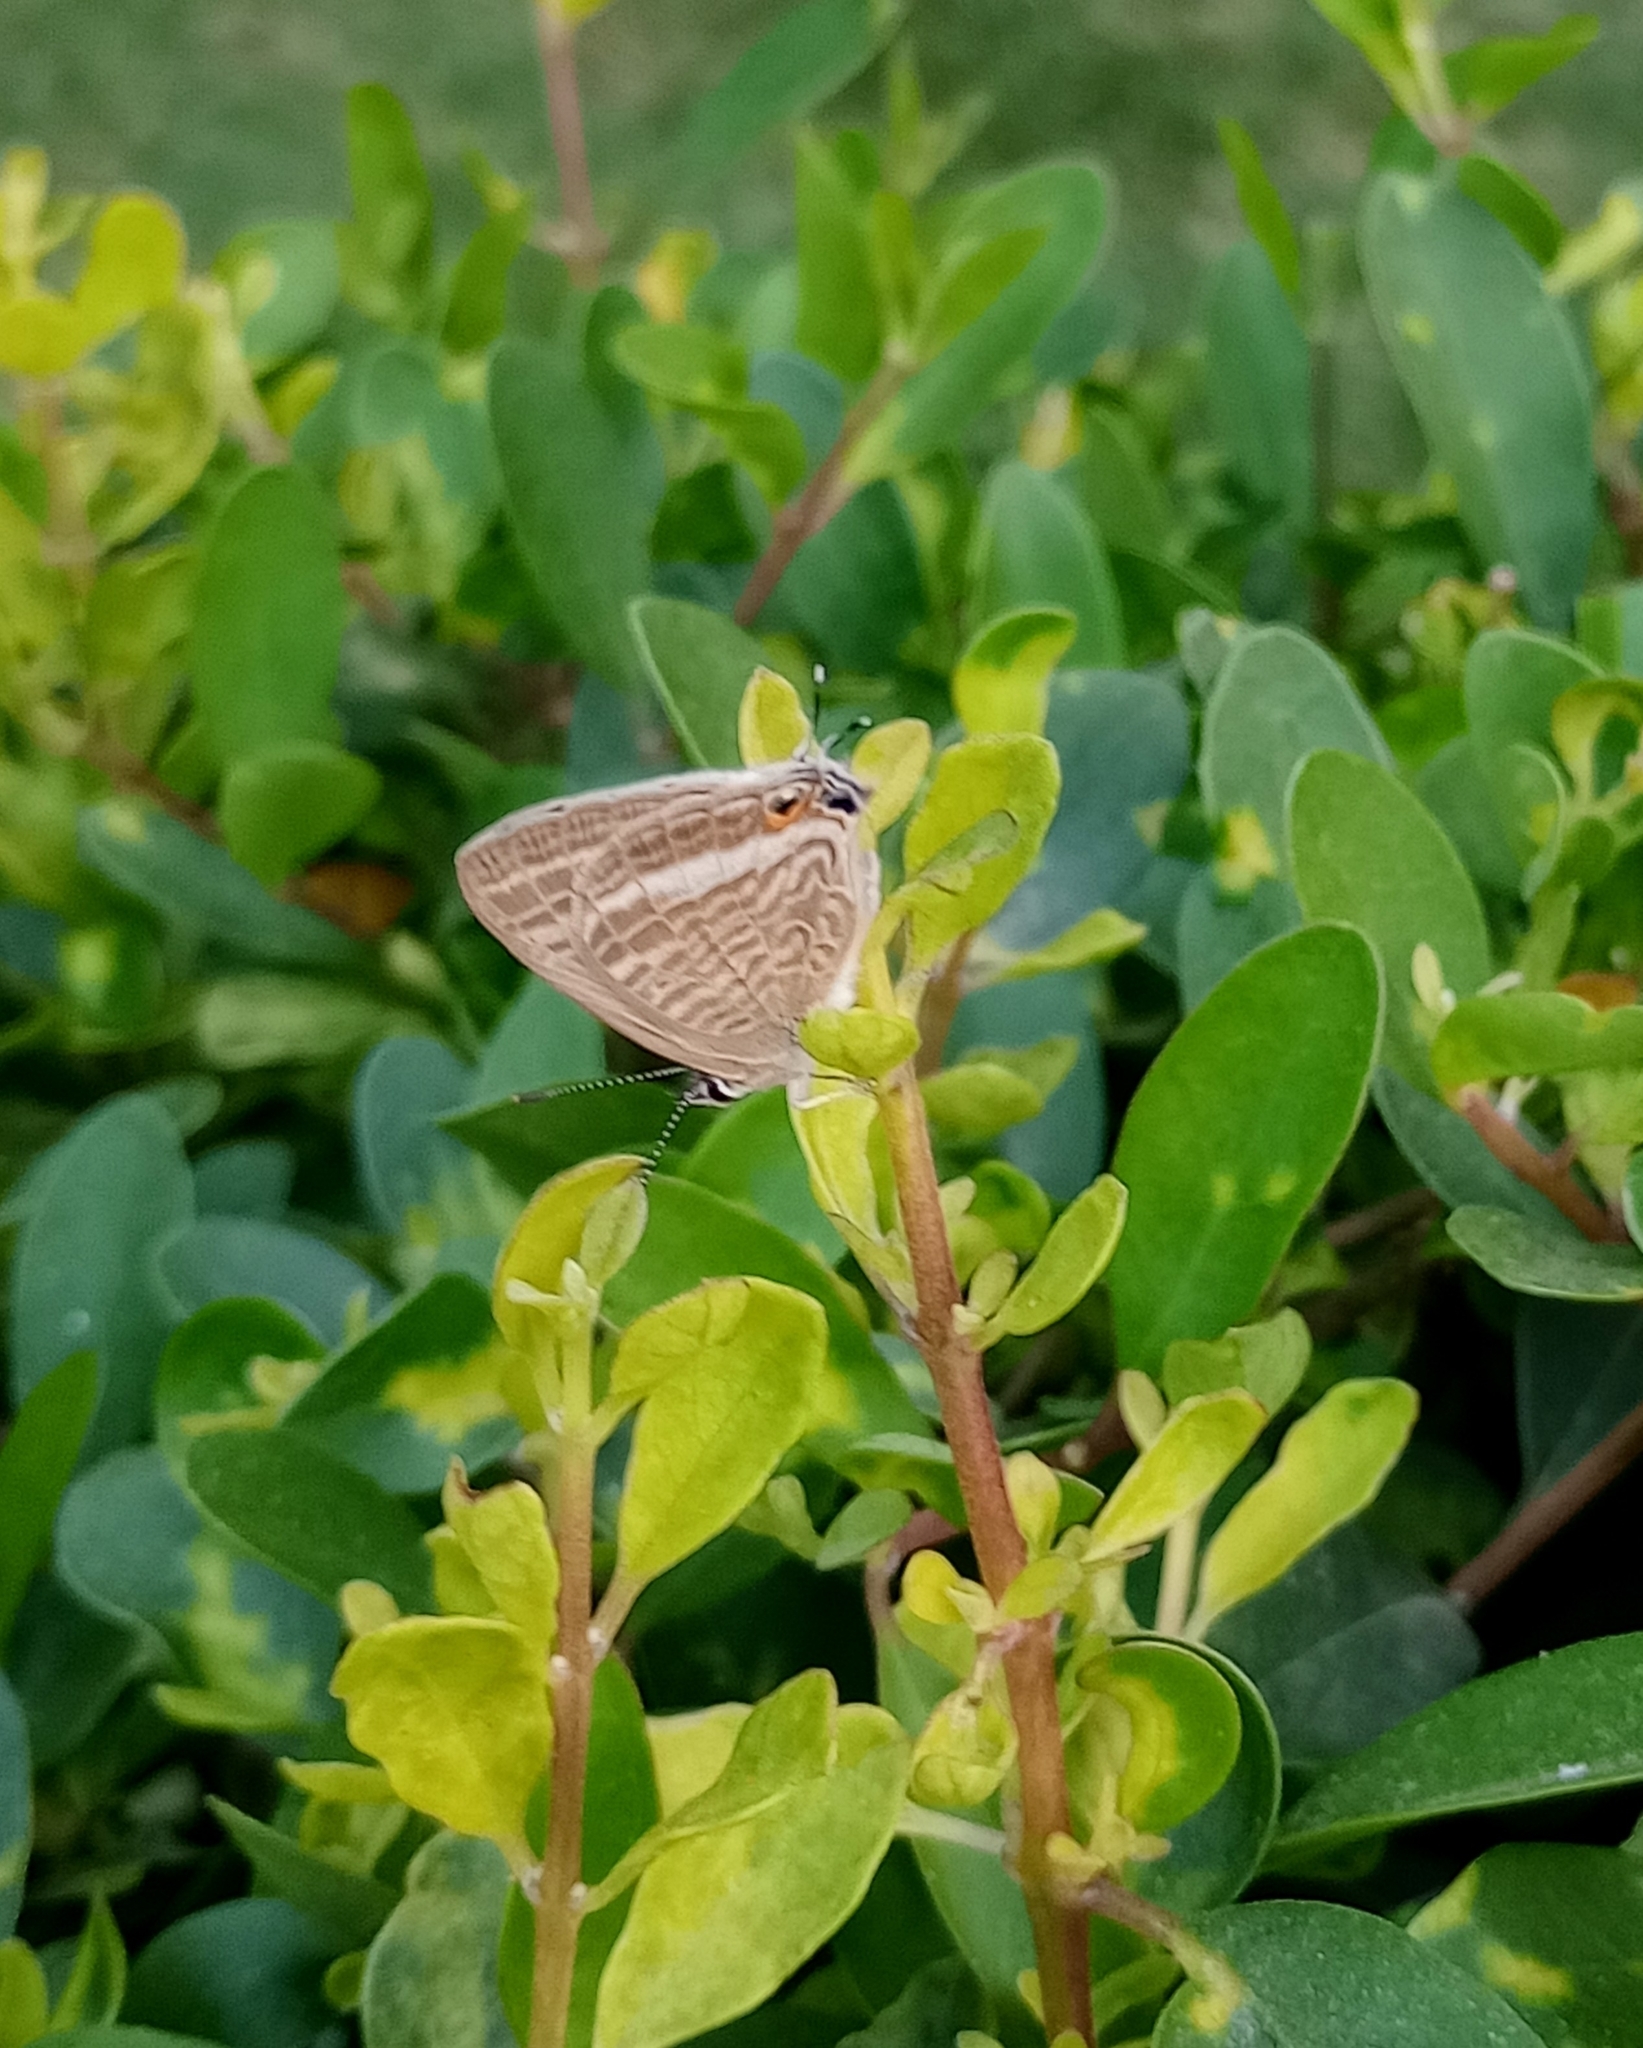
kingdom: Animalia
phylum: Arthropoda
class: Insecta
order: Lepidoptera
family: Lycaenidae
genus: Lampides
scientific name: Lampides boeticus
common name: Long-tailed blue
